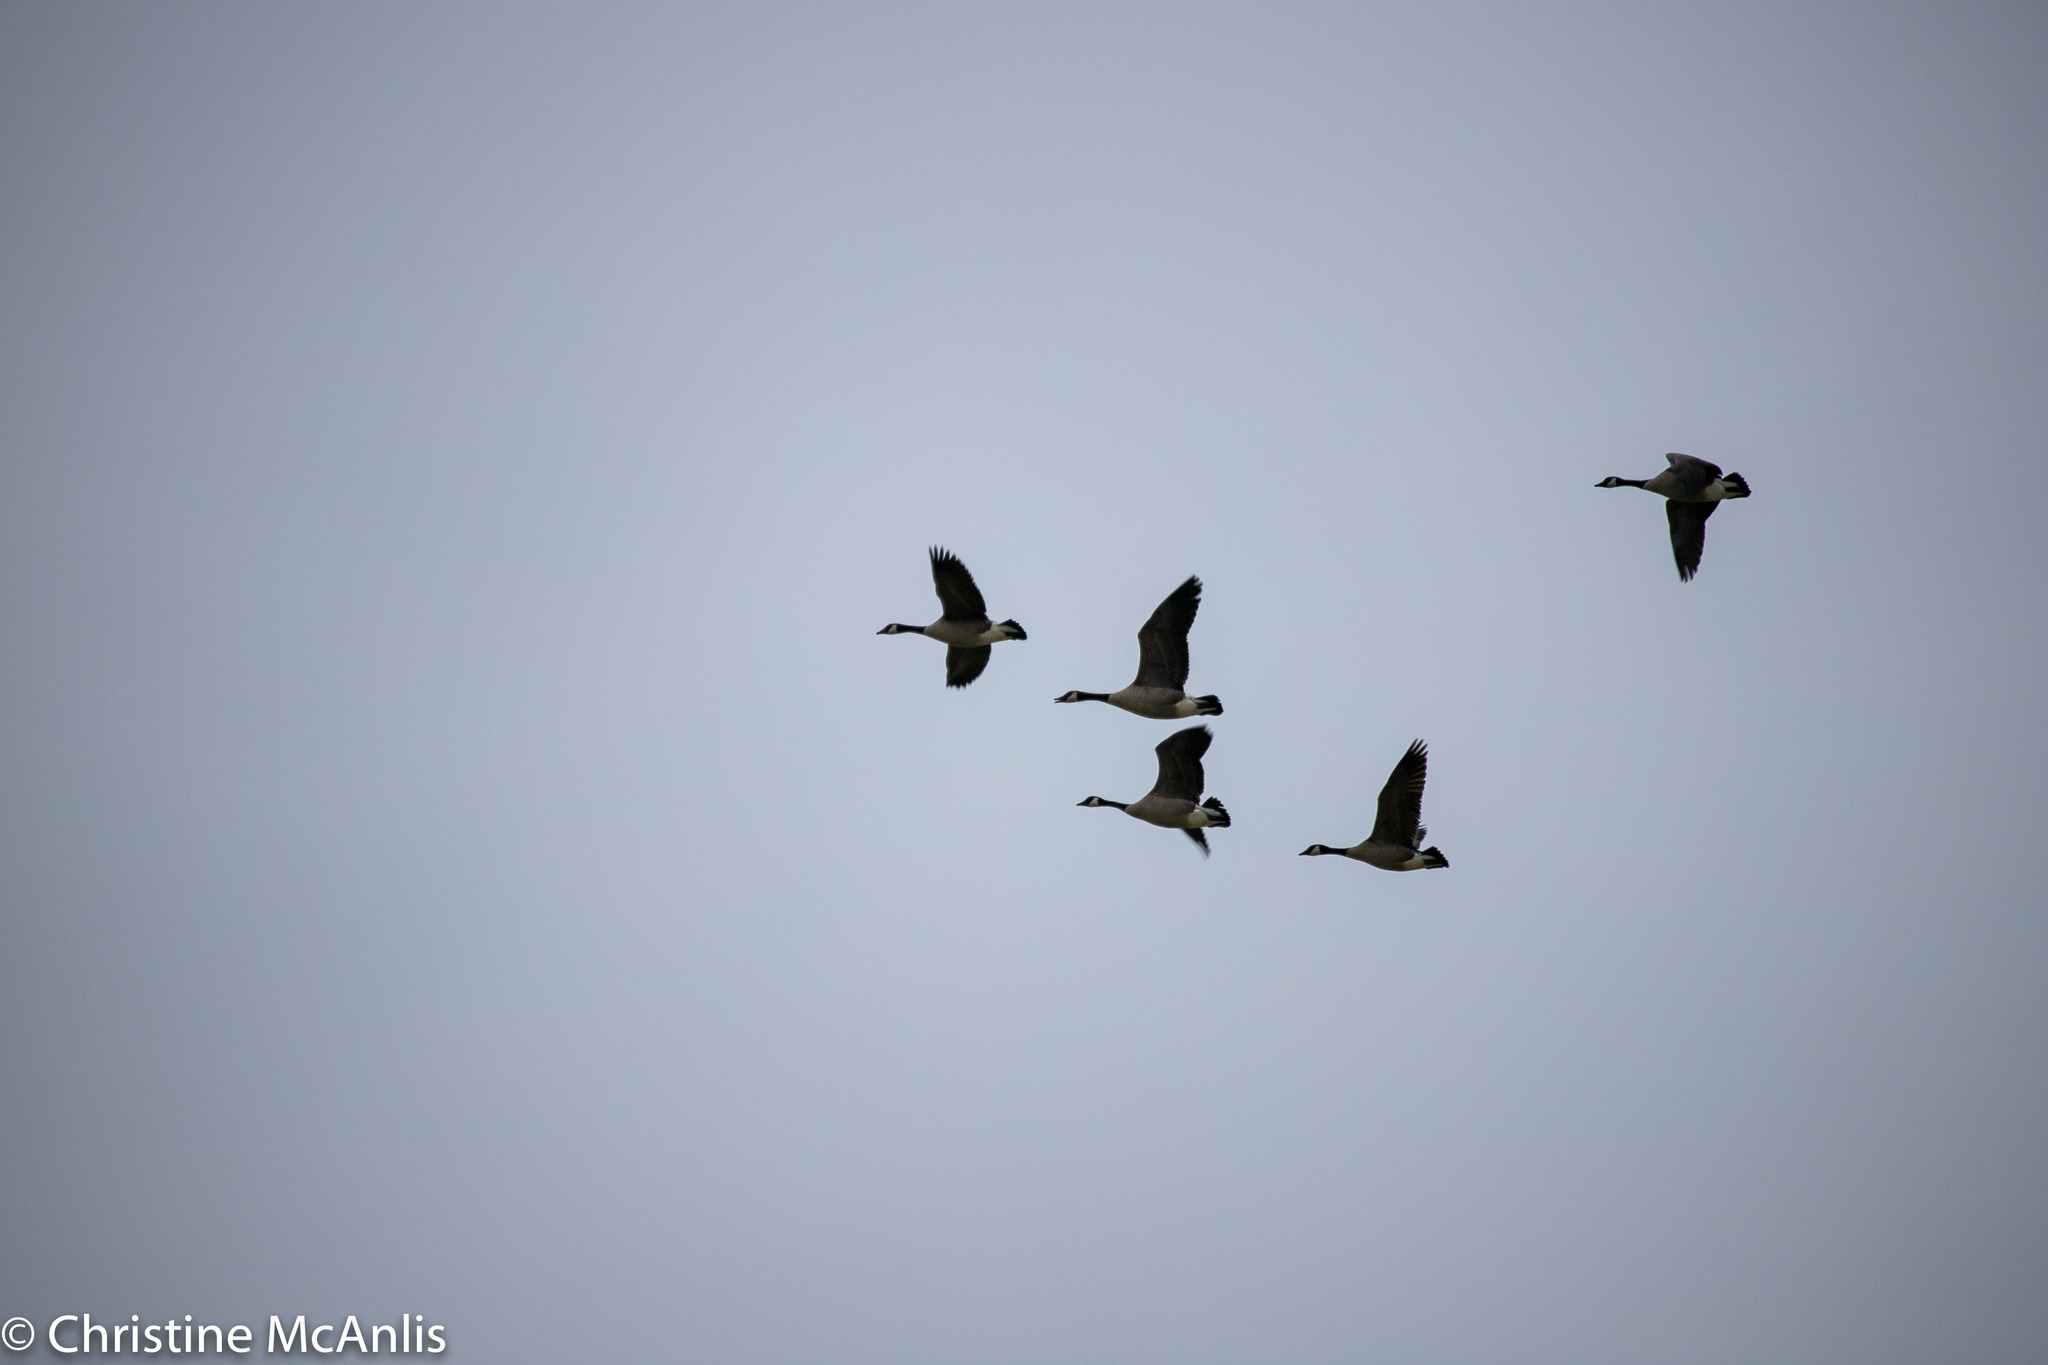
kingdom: Animalia
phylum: Chordata
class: Aves
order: Anseriformes
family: Anatidae
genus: Branta
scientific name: Branta canadensis
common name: Canada goose
